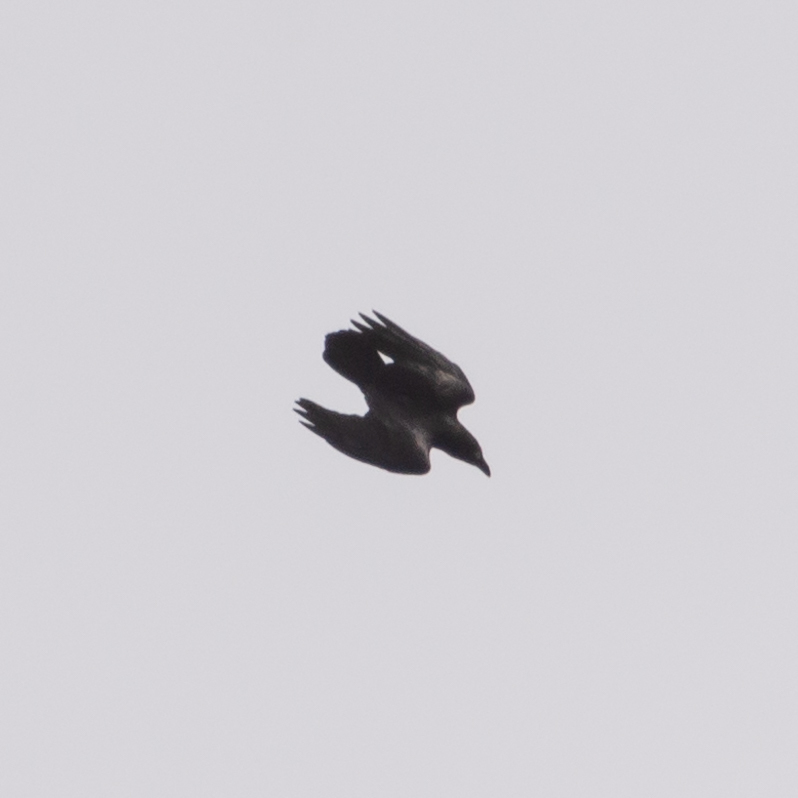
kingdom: Animalia
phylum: Chordata
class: Aves
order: Passeriformes
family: Corvidae
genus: Corvus
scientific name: Corvus corax
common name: Common raven
